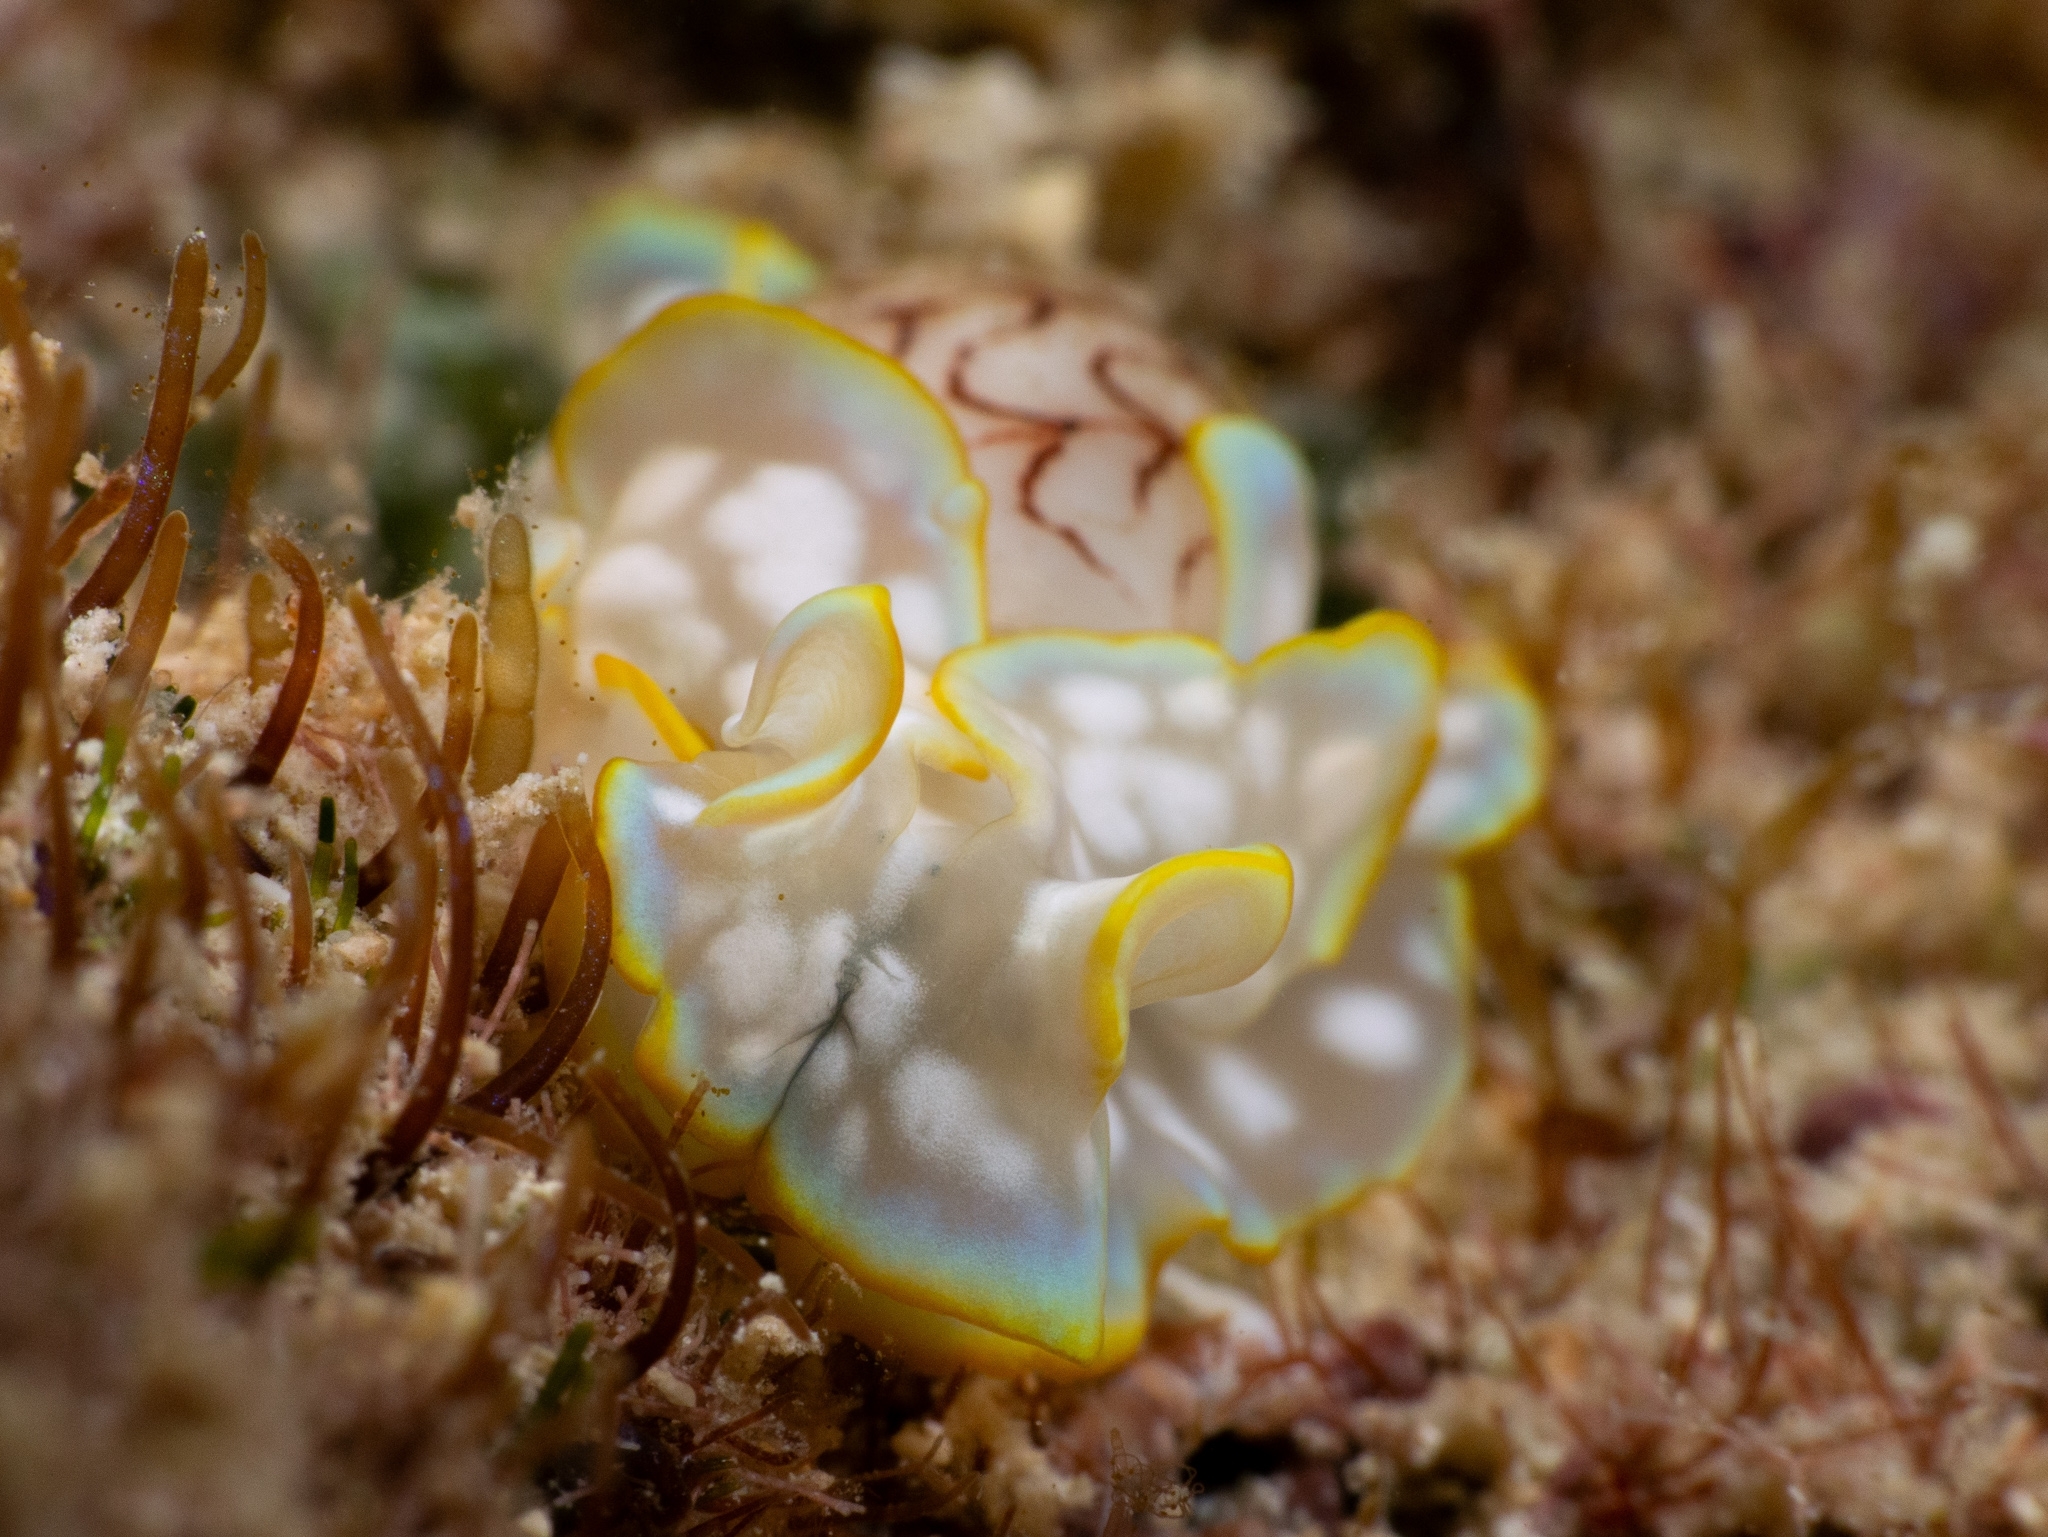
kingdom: Animalia
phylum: Mollusca
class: Gastropoda
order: Cephalaspidea
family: Aplustridae
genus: Micromelo
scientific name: Micromelo undatus
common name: Miniature melo
